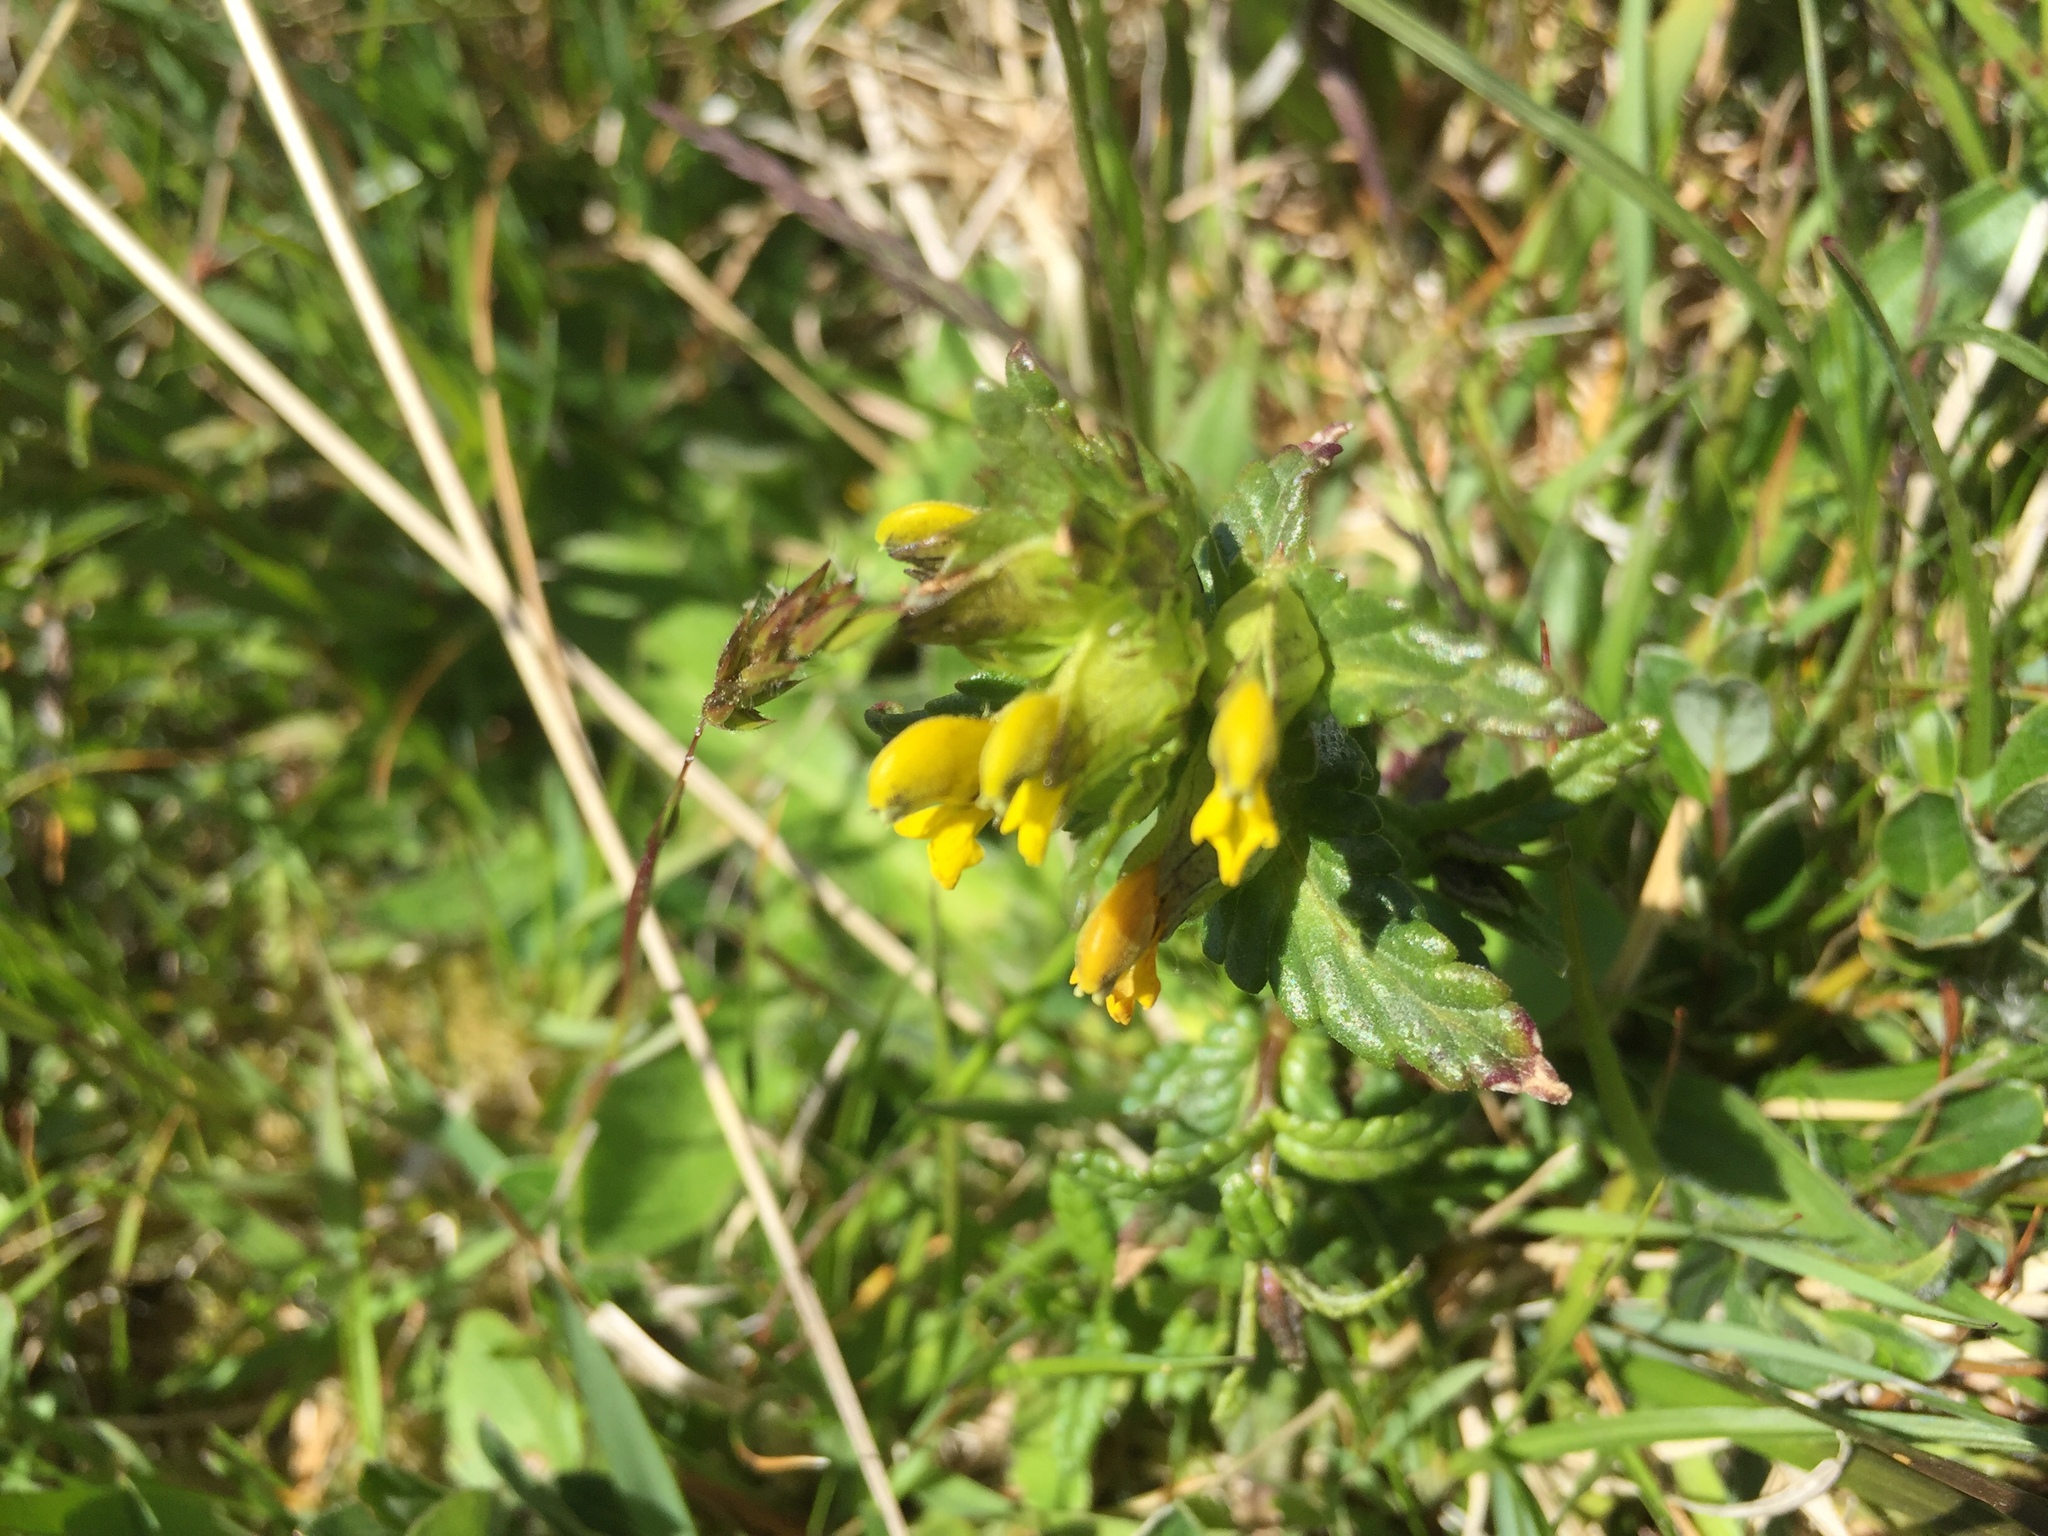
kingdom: Plantae
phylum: Tracheophyta
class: Magnoliopsida
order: Lamiales
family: Orobanchaceae
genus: Rhinanthus
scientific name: Rhinanthus minor
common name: Yellow-rattle
